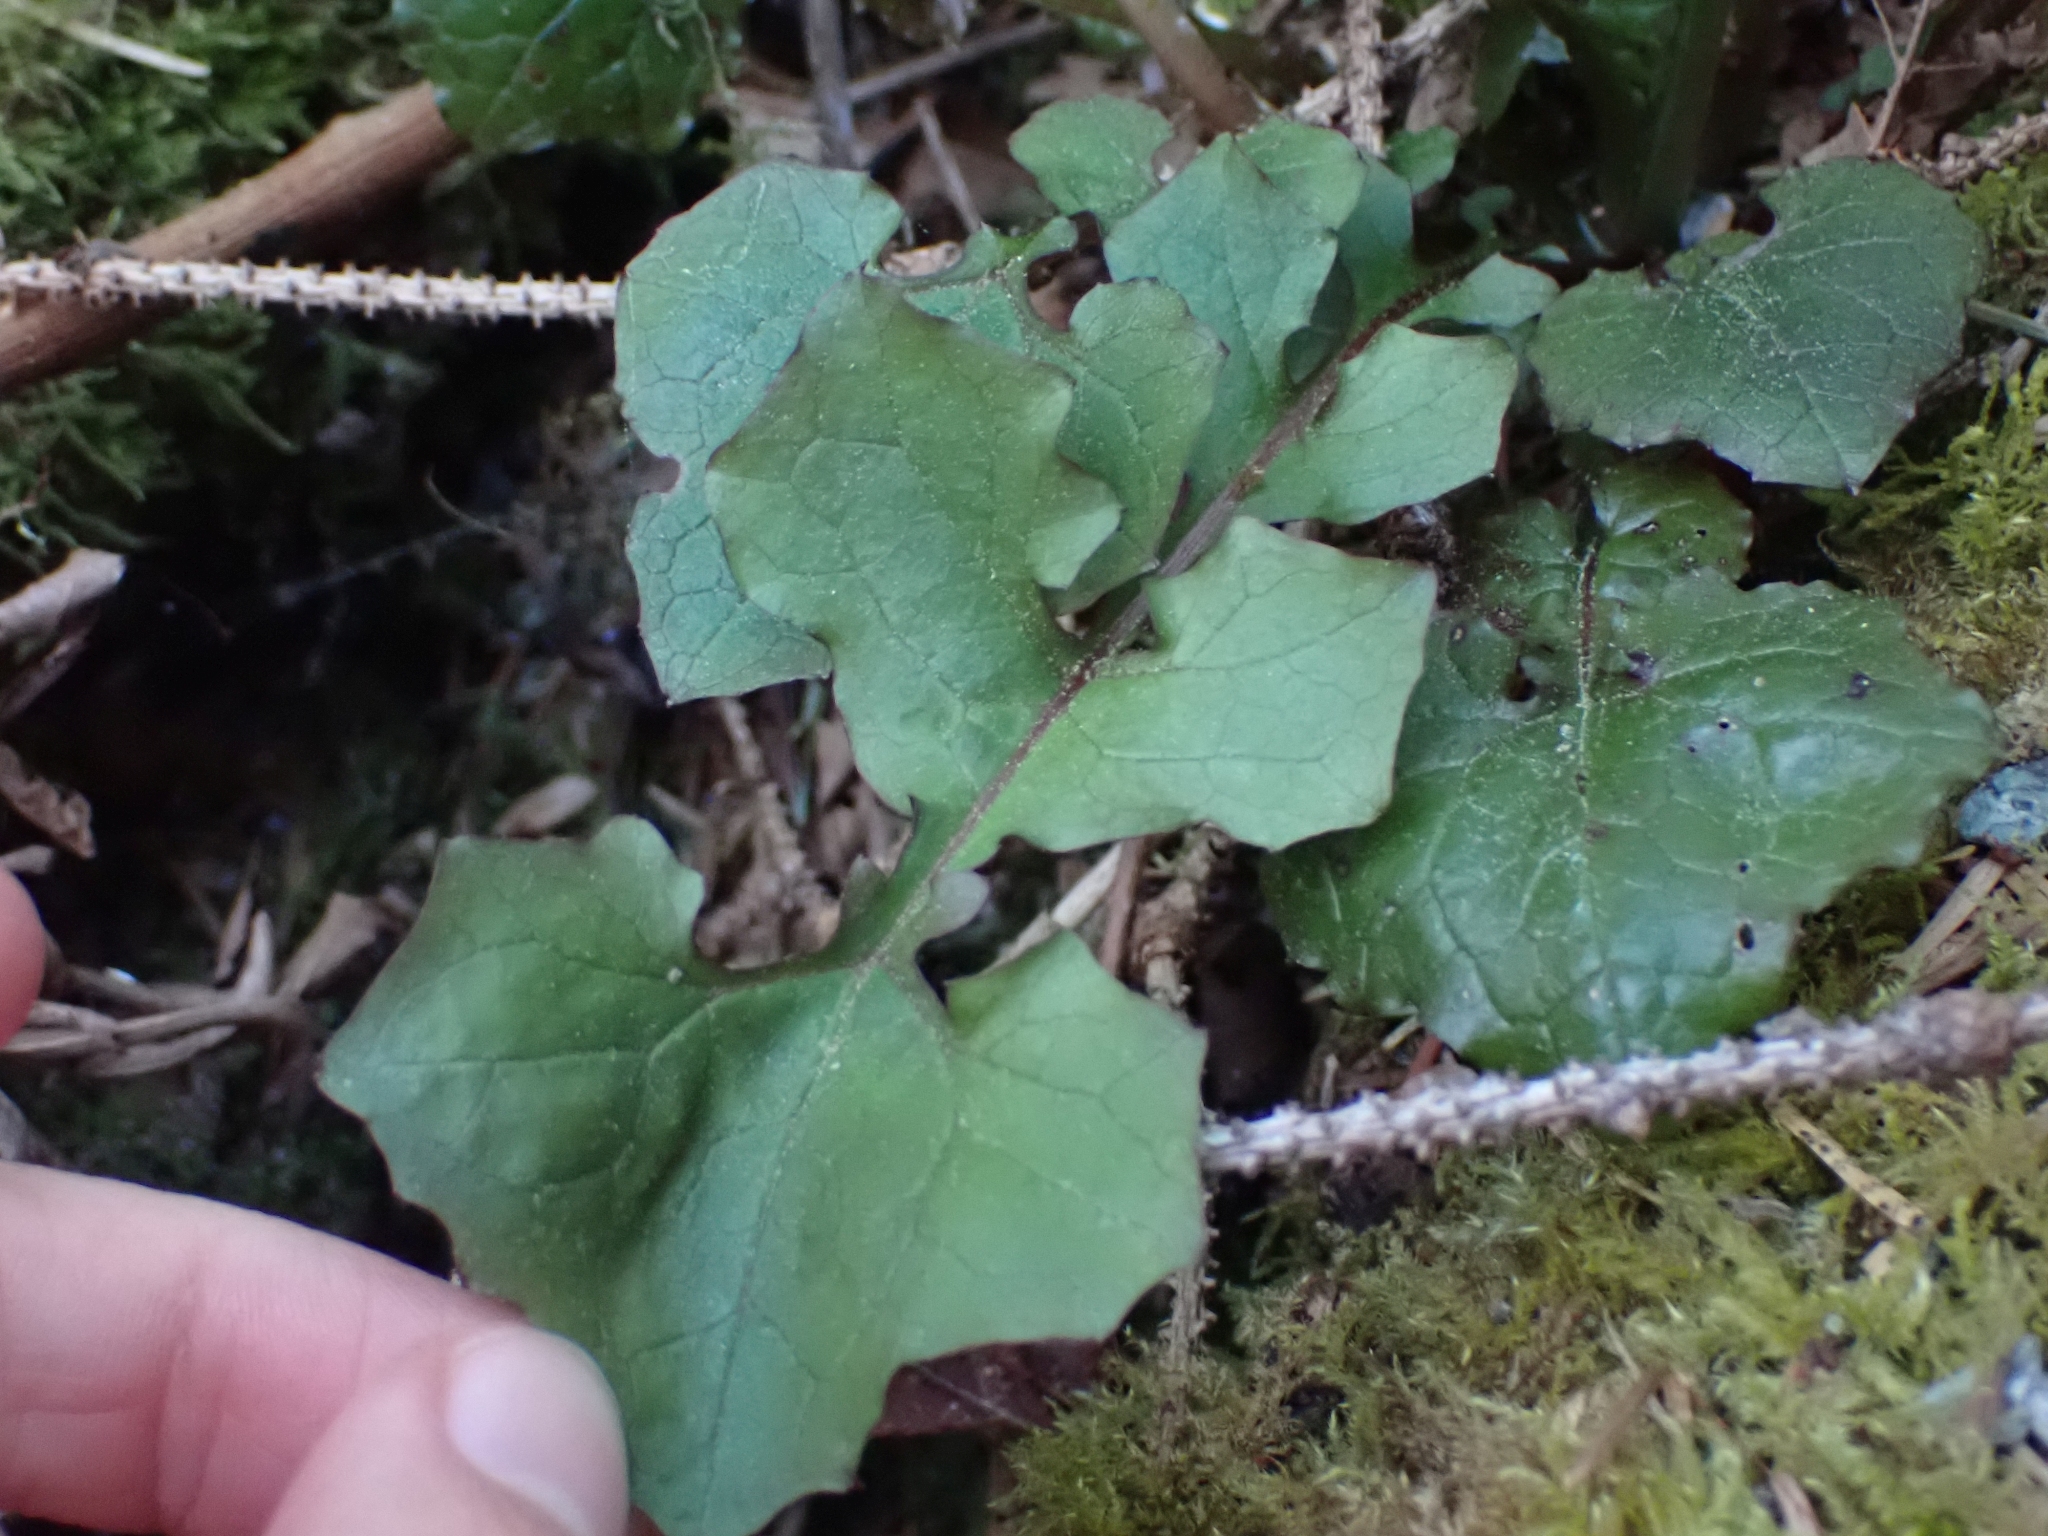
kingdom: Plantae
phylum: Tracheophyta
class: Magnoliopsida
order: Asterales
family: Asteraceae
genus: Mycelis
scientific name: Mycelis muralis
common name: Wall lettuce
